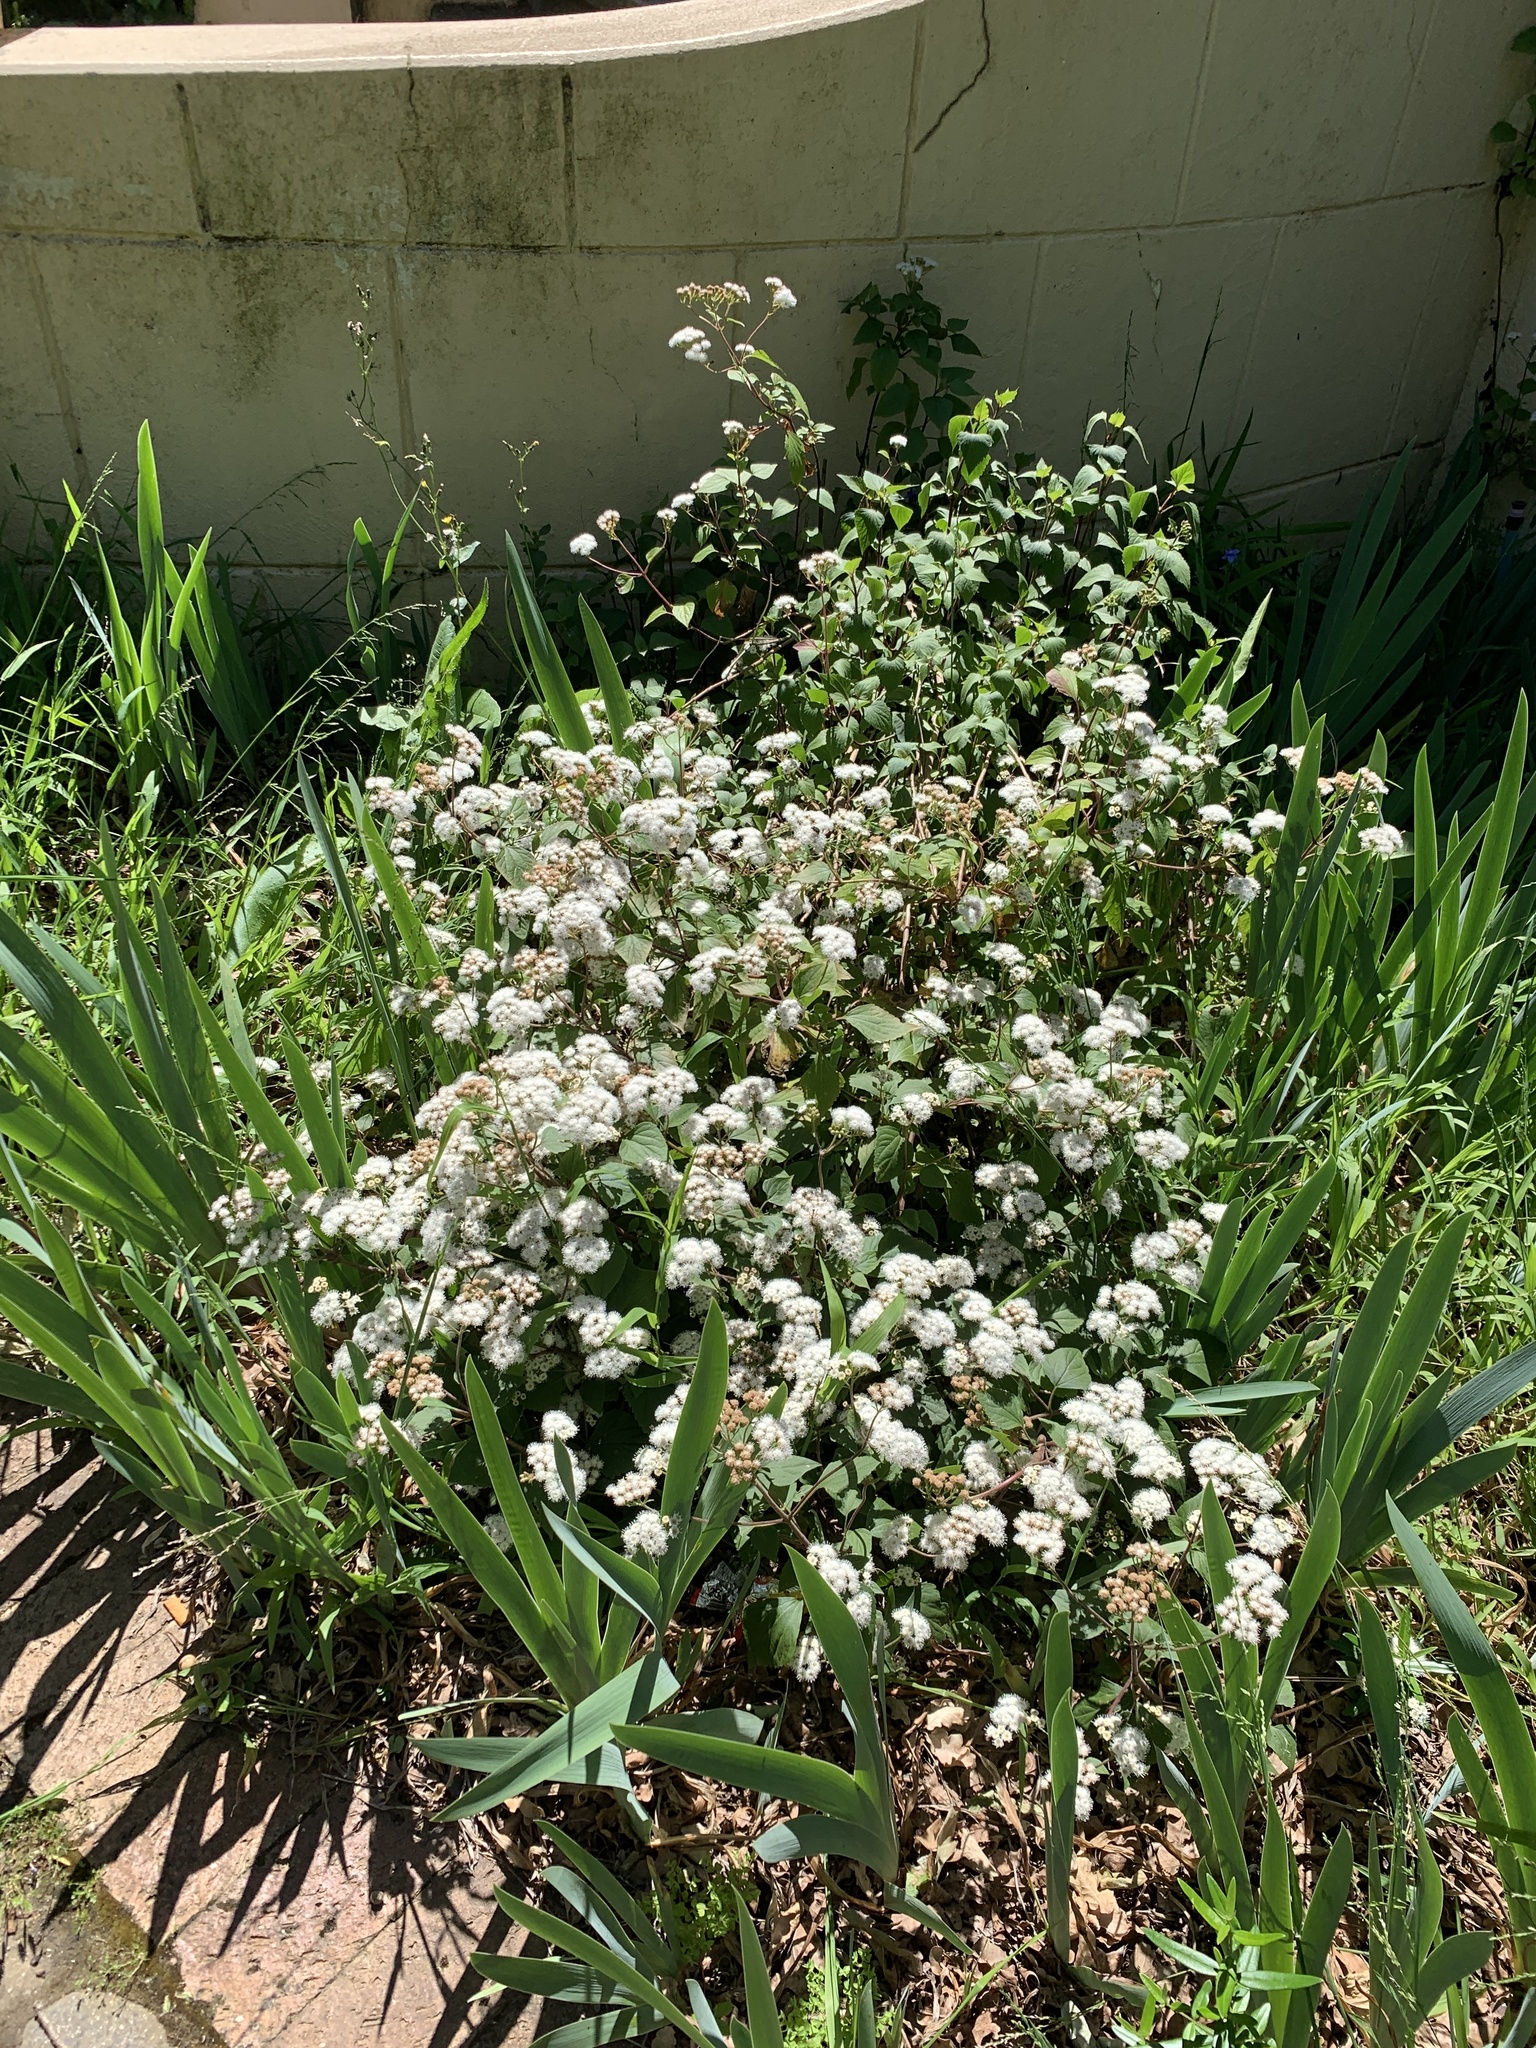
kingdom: Plantae
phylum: Tracheophyta
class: Magnoliopsida
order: Asterales
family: Asteraceae
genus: Ageratina
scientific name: Ageratina adenophora
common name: Sticky snakeroot
